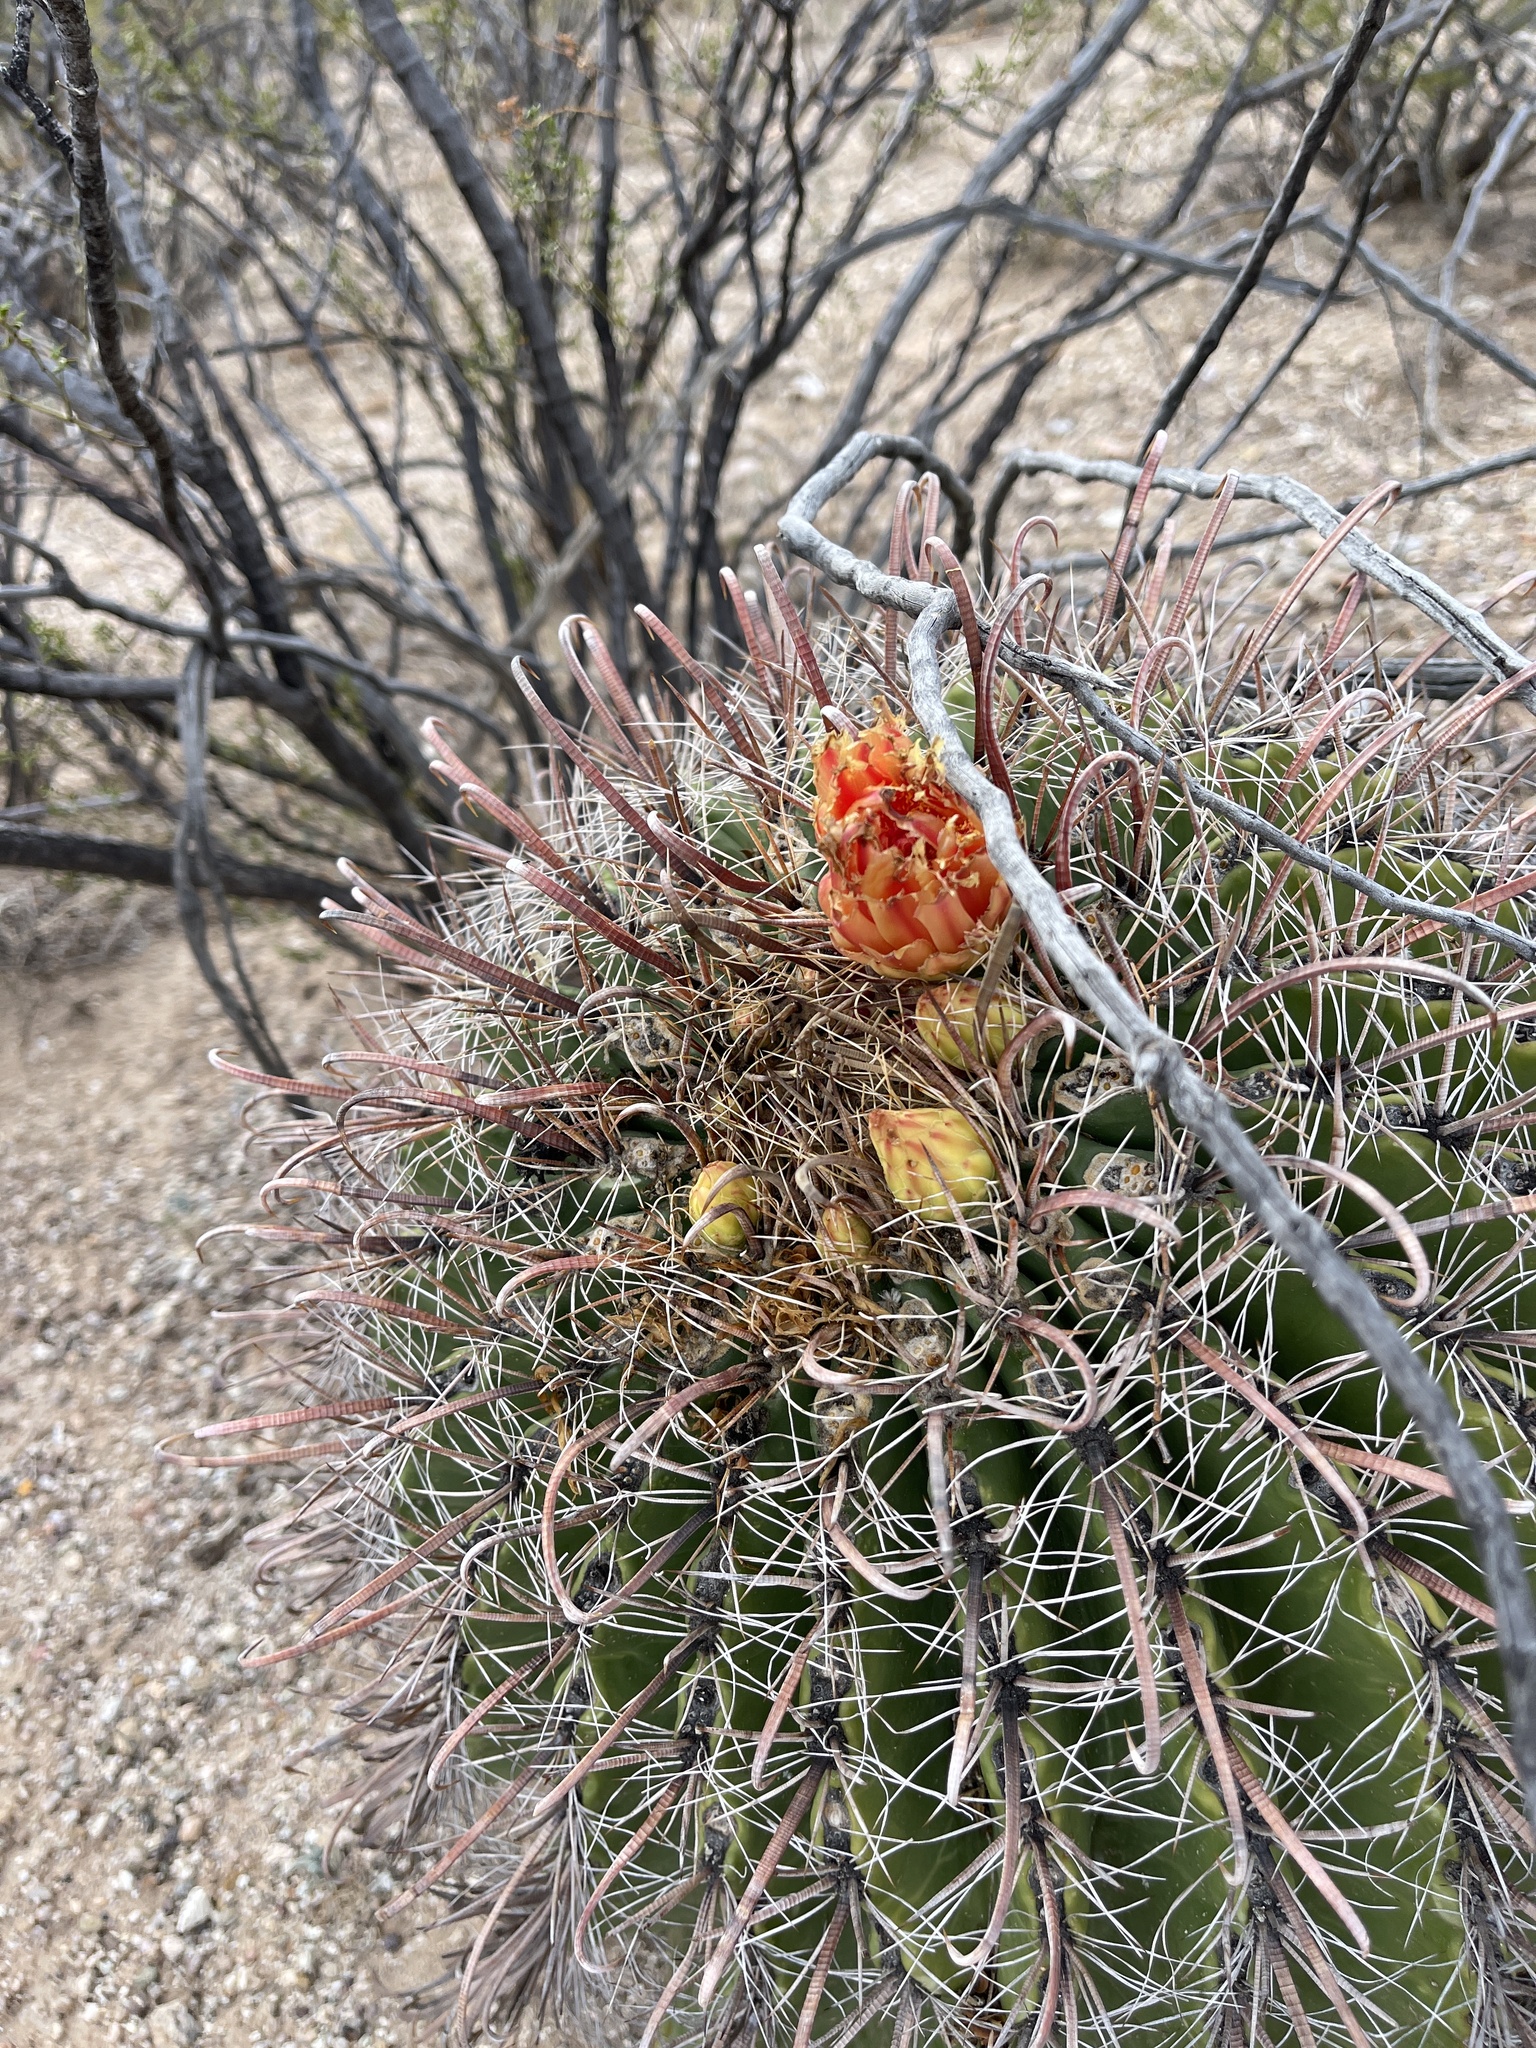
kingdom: Plantae
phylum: Tracheophyta
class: Magnoliopsida
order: Caryophyllales
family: Cactaceae
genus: Ferocactus
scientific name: Ferocactus wislizeni
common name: Candy barrel cactus
